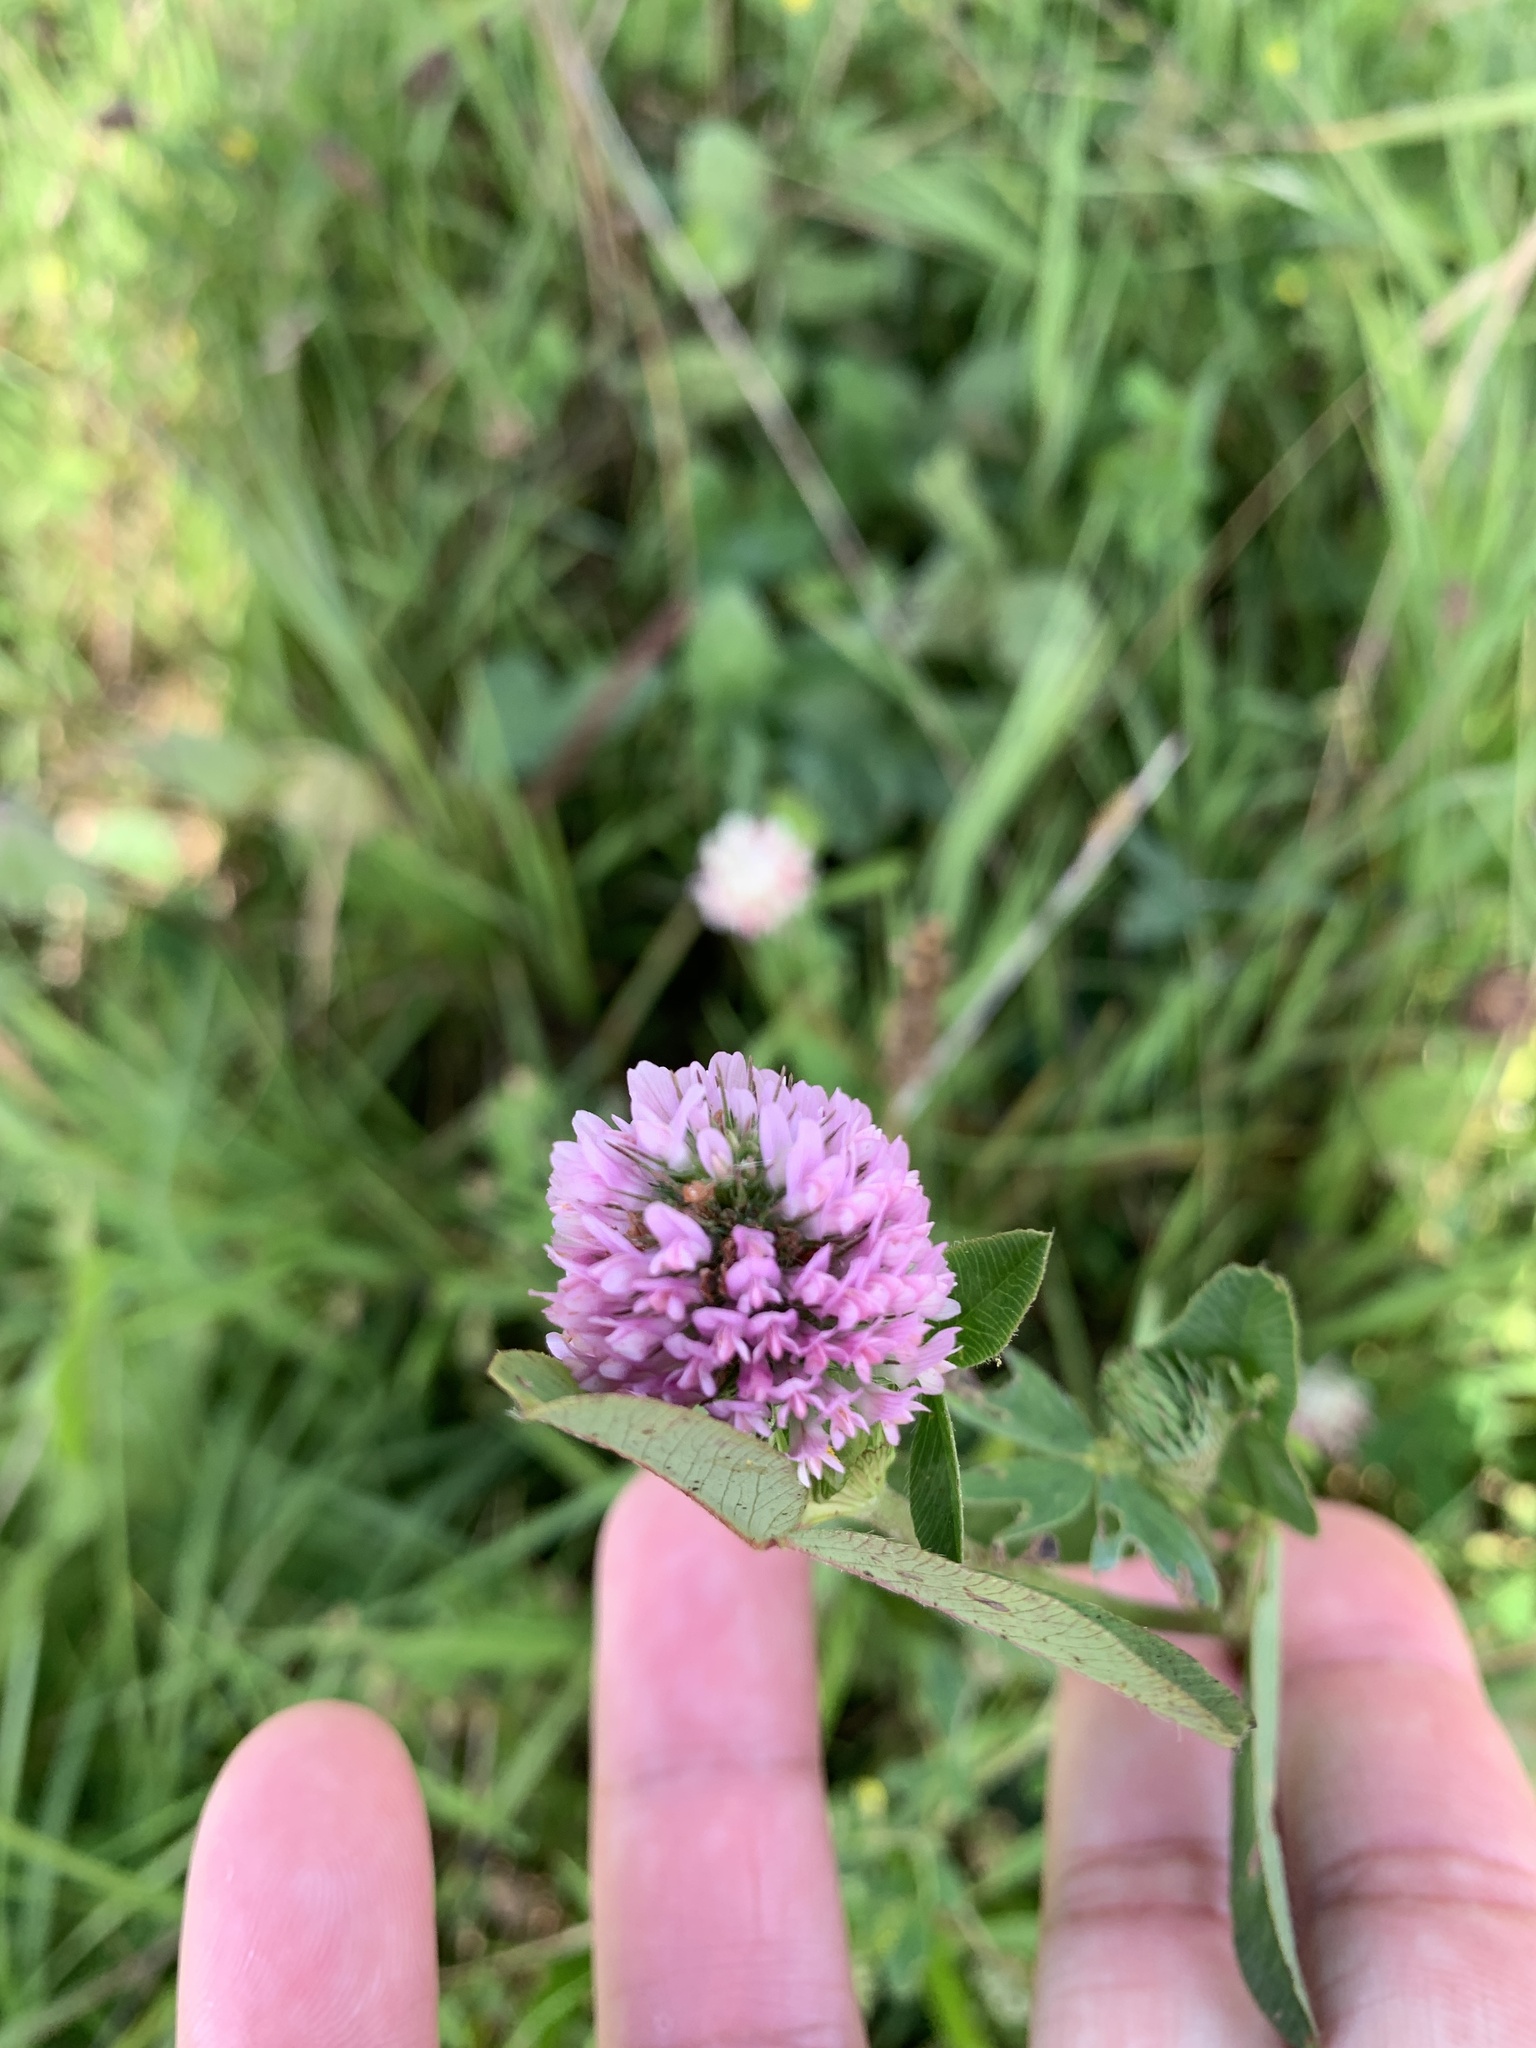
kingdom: Plantae
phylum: Tracheophyta
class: Magnoliopsida
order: Fabales
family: Fabaceae
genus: Trifolium
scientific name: Trifolium pratense
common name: Red clover
